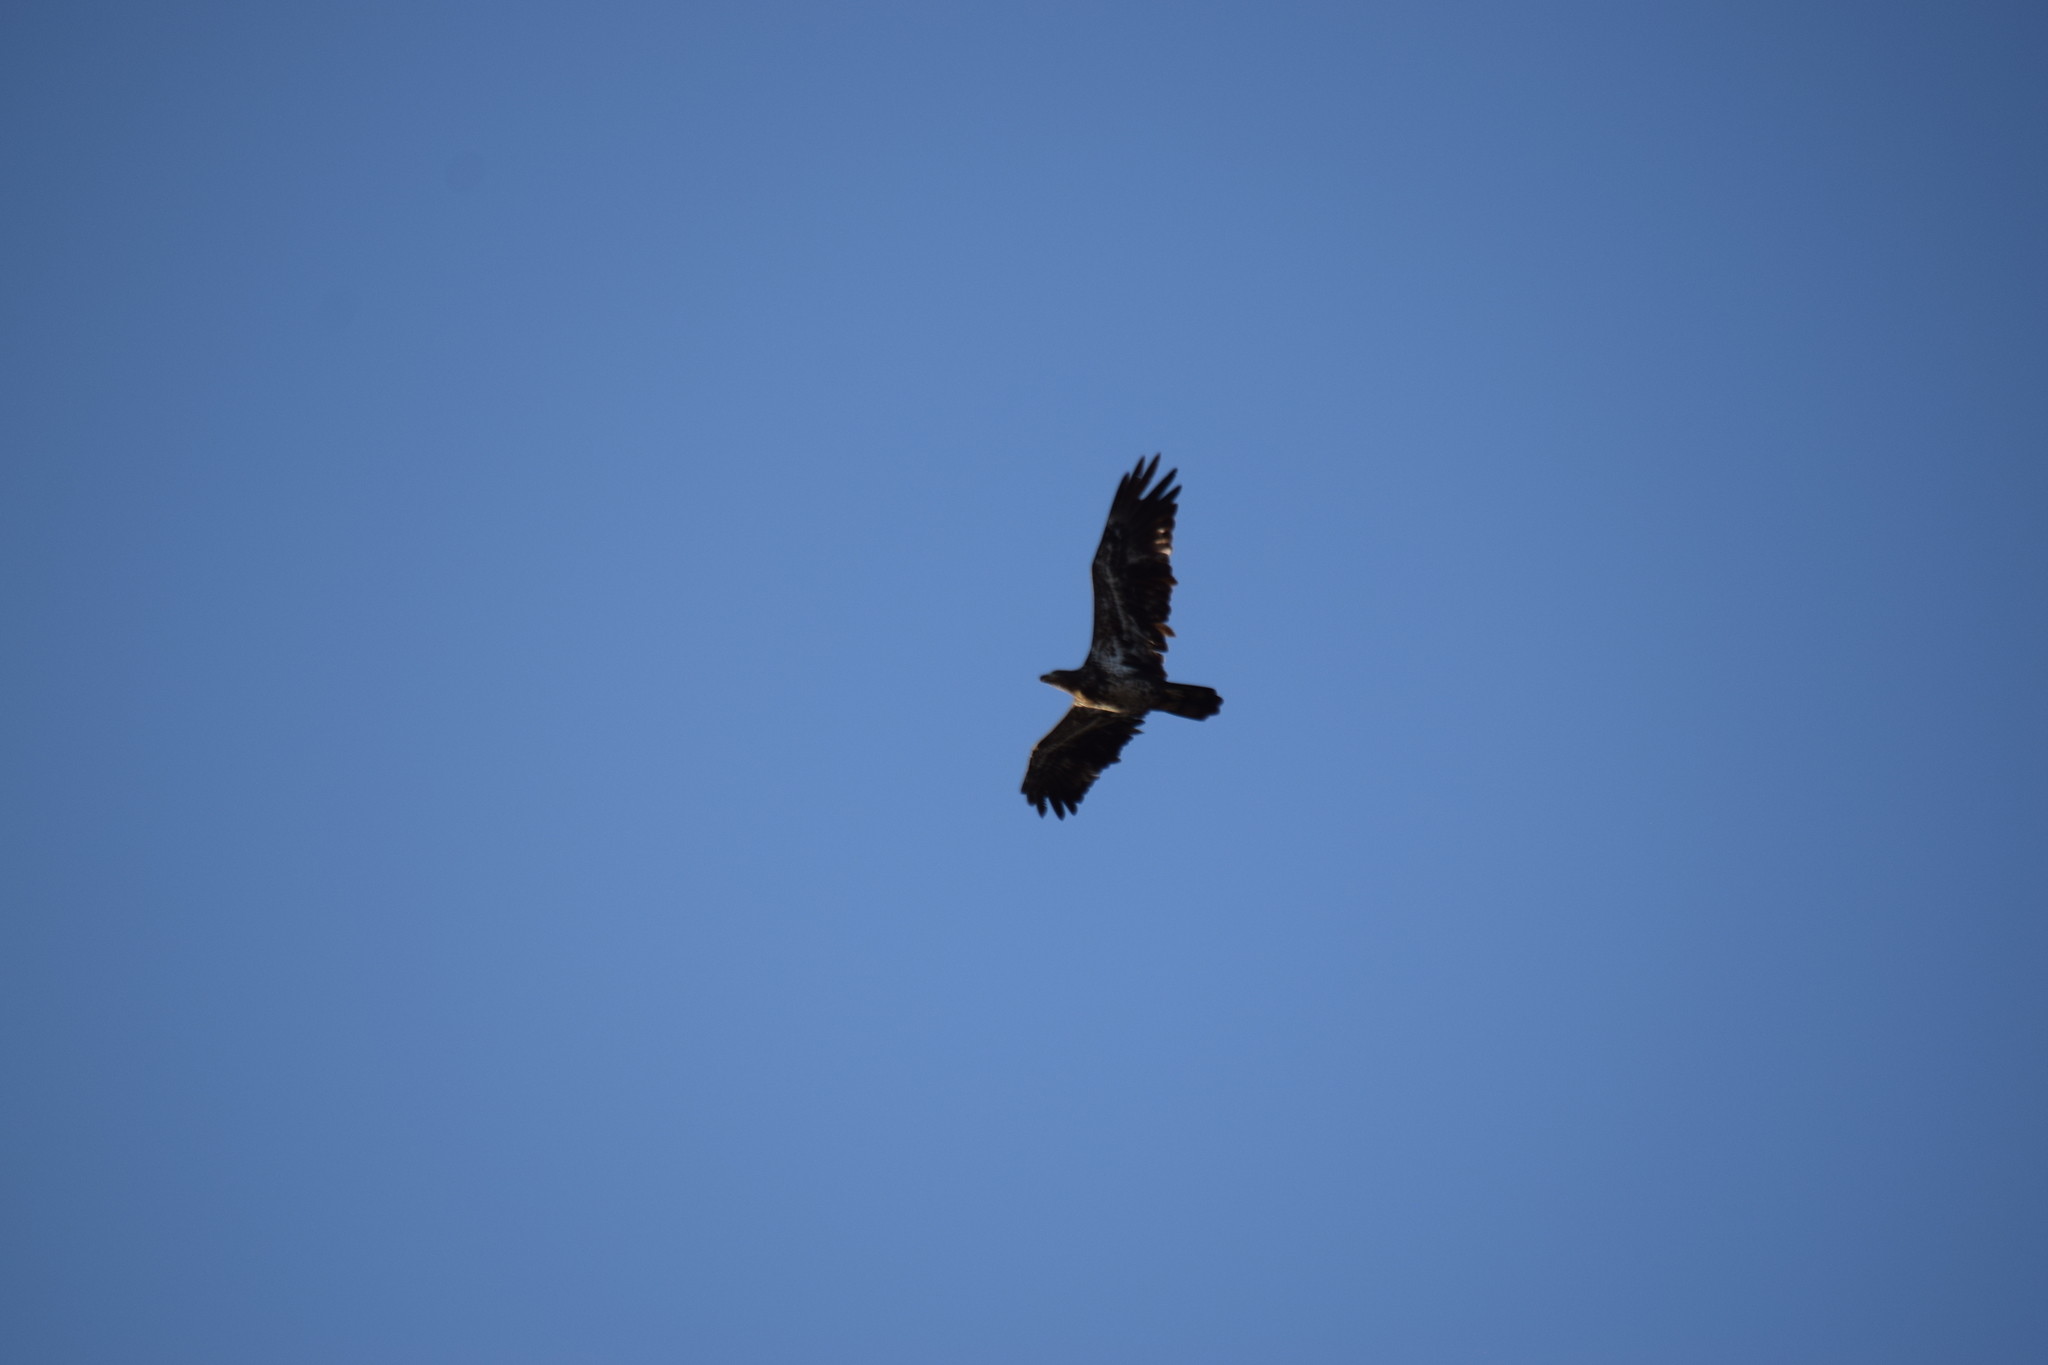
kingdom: Animalia
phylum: Chordata
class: Aves
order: Accipitriformes
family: Accipitridae
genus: Haliaeetus
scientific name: Haliaeetus leucocephalus
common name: Bald eagle
